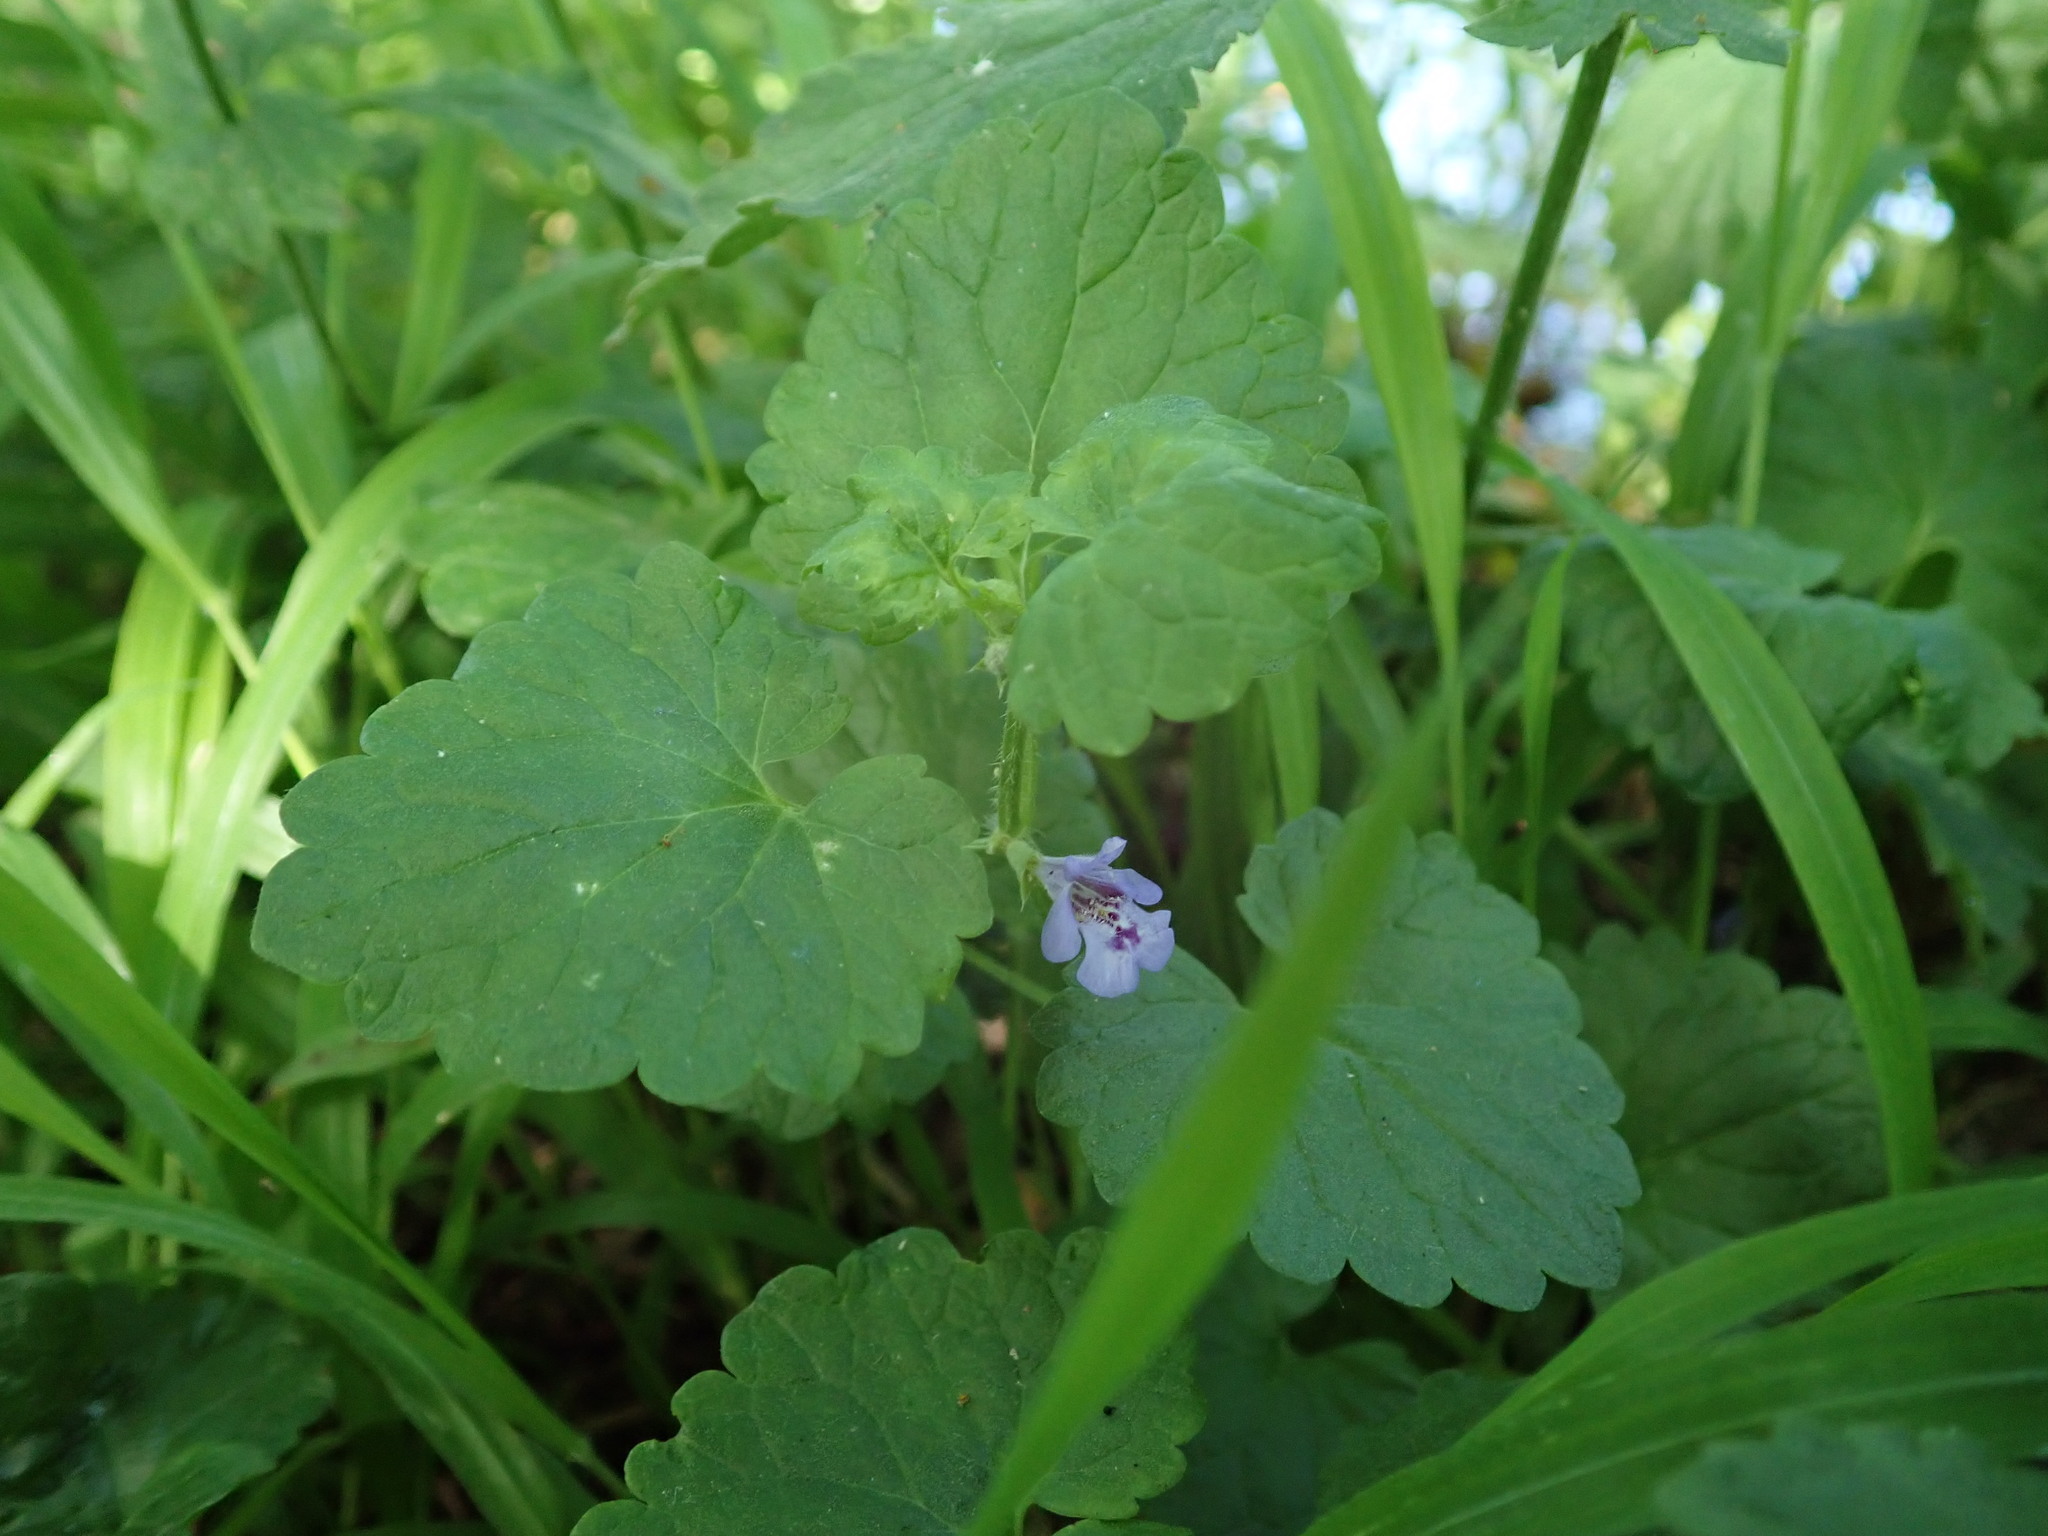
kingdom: Plantae
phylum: Tracheophyta
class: Magnoliopsida
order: Lamiales
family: Lamiaceae
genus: Glechoma
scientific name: Glechoma hederacea
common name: Ground ivy
